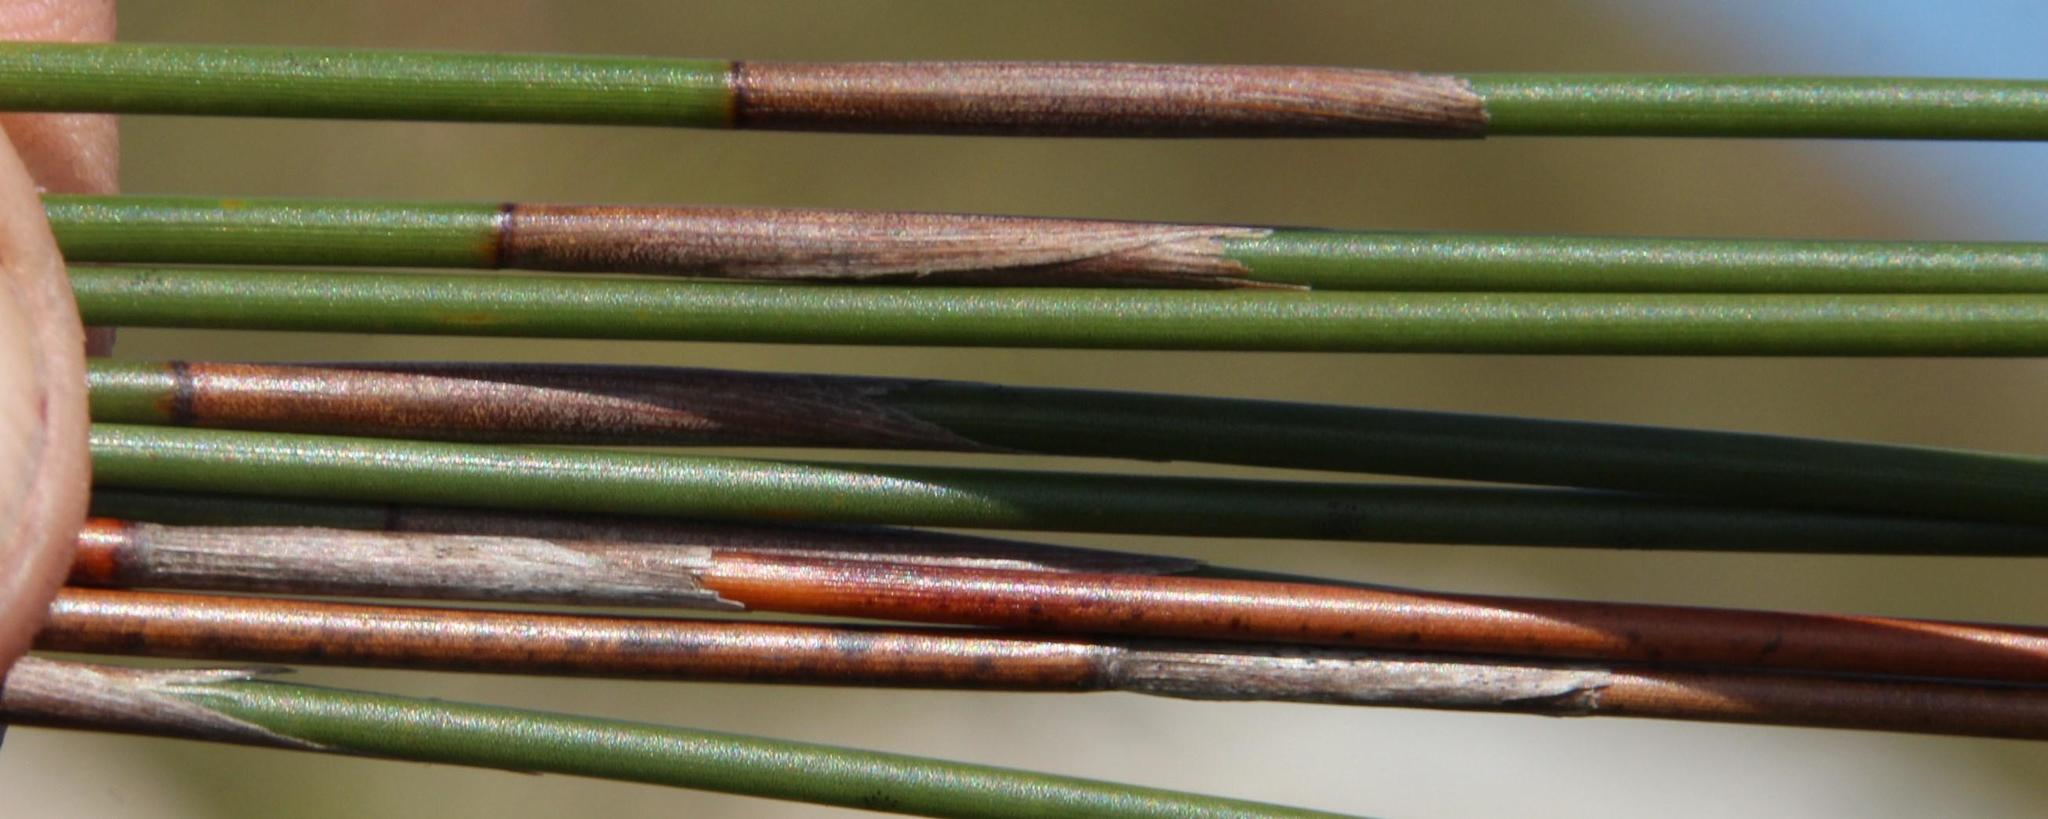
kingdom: Plantae
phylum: Tracheophyta
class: Liliopsida
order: Poales
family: Restionaceae
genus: Hypodiscus
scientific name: Hypodiscus argenteus
